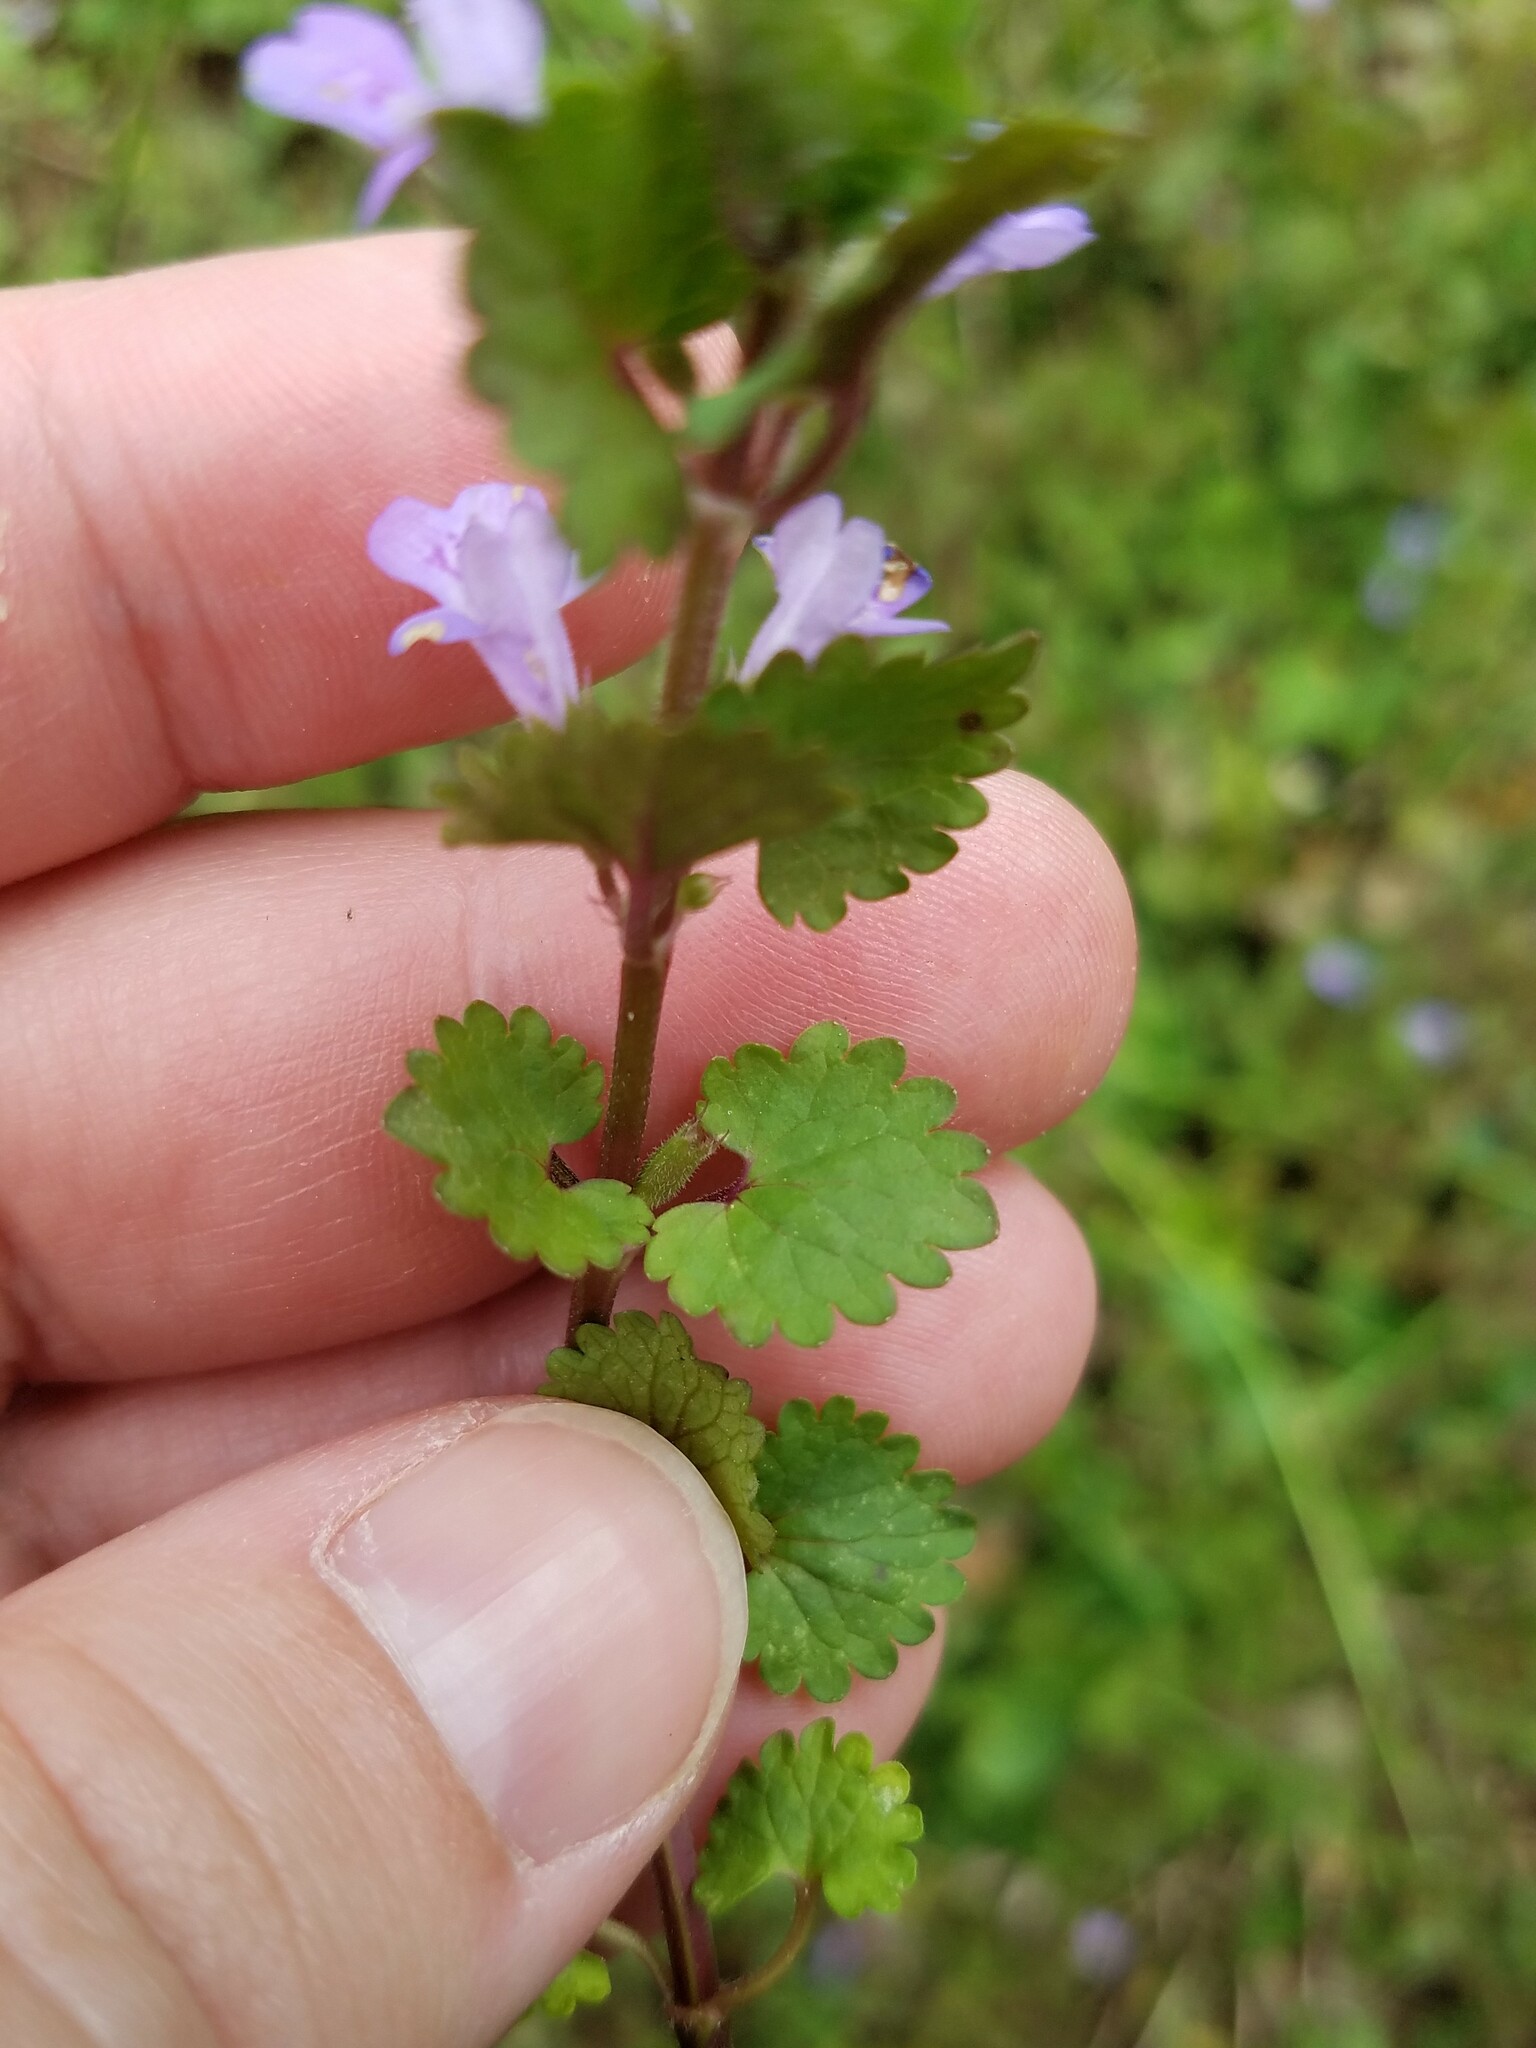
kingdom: Plantae
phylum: Tracheophyta
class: Magnoliopsida
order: Lamiales
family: Lamiaceae
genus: Glechoma
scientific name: Glechoma hederacea
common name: Ground ivy
